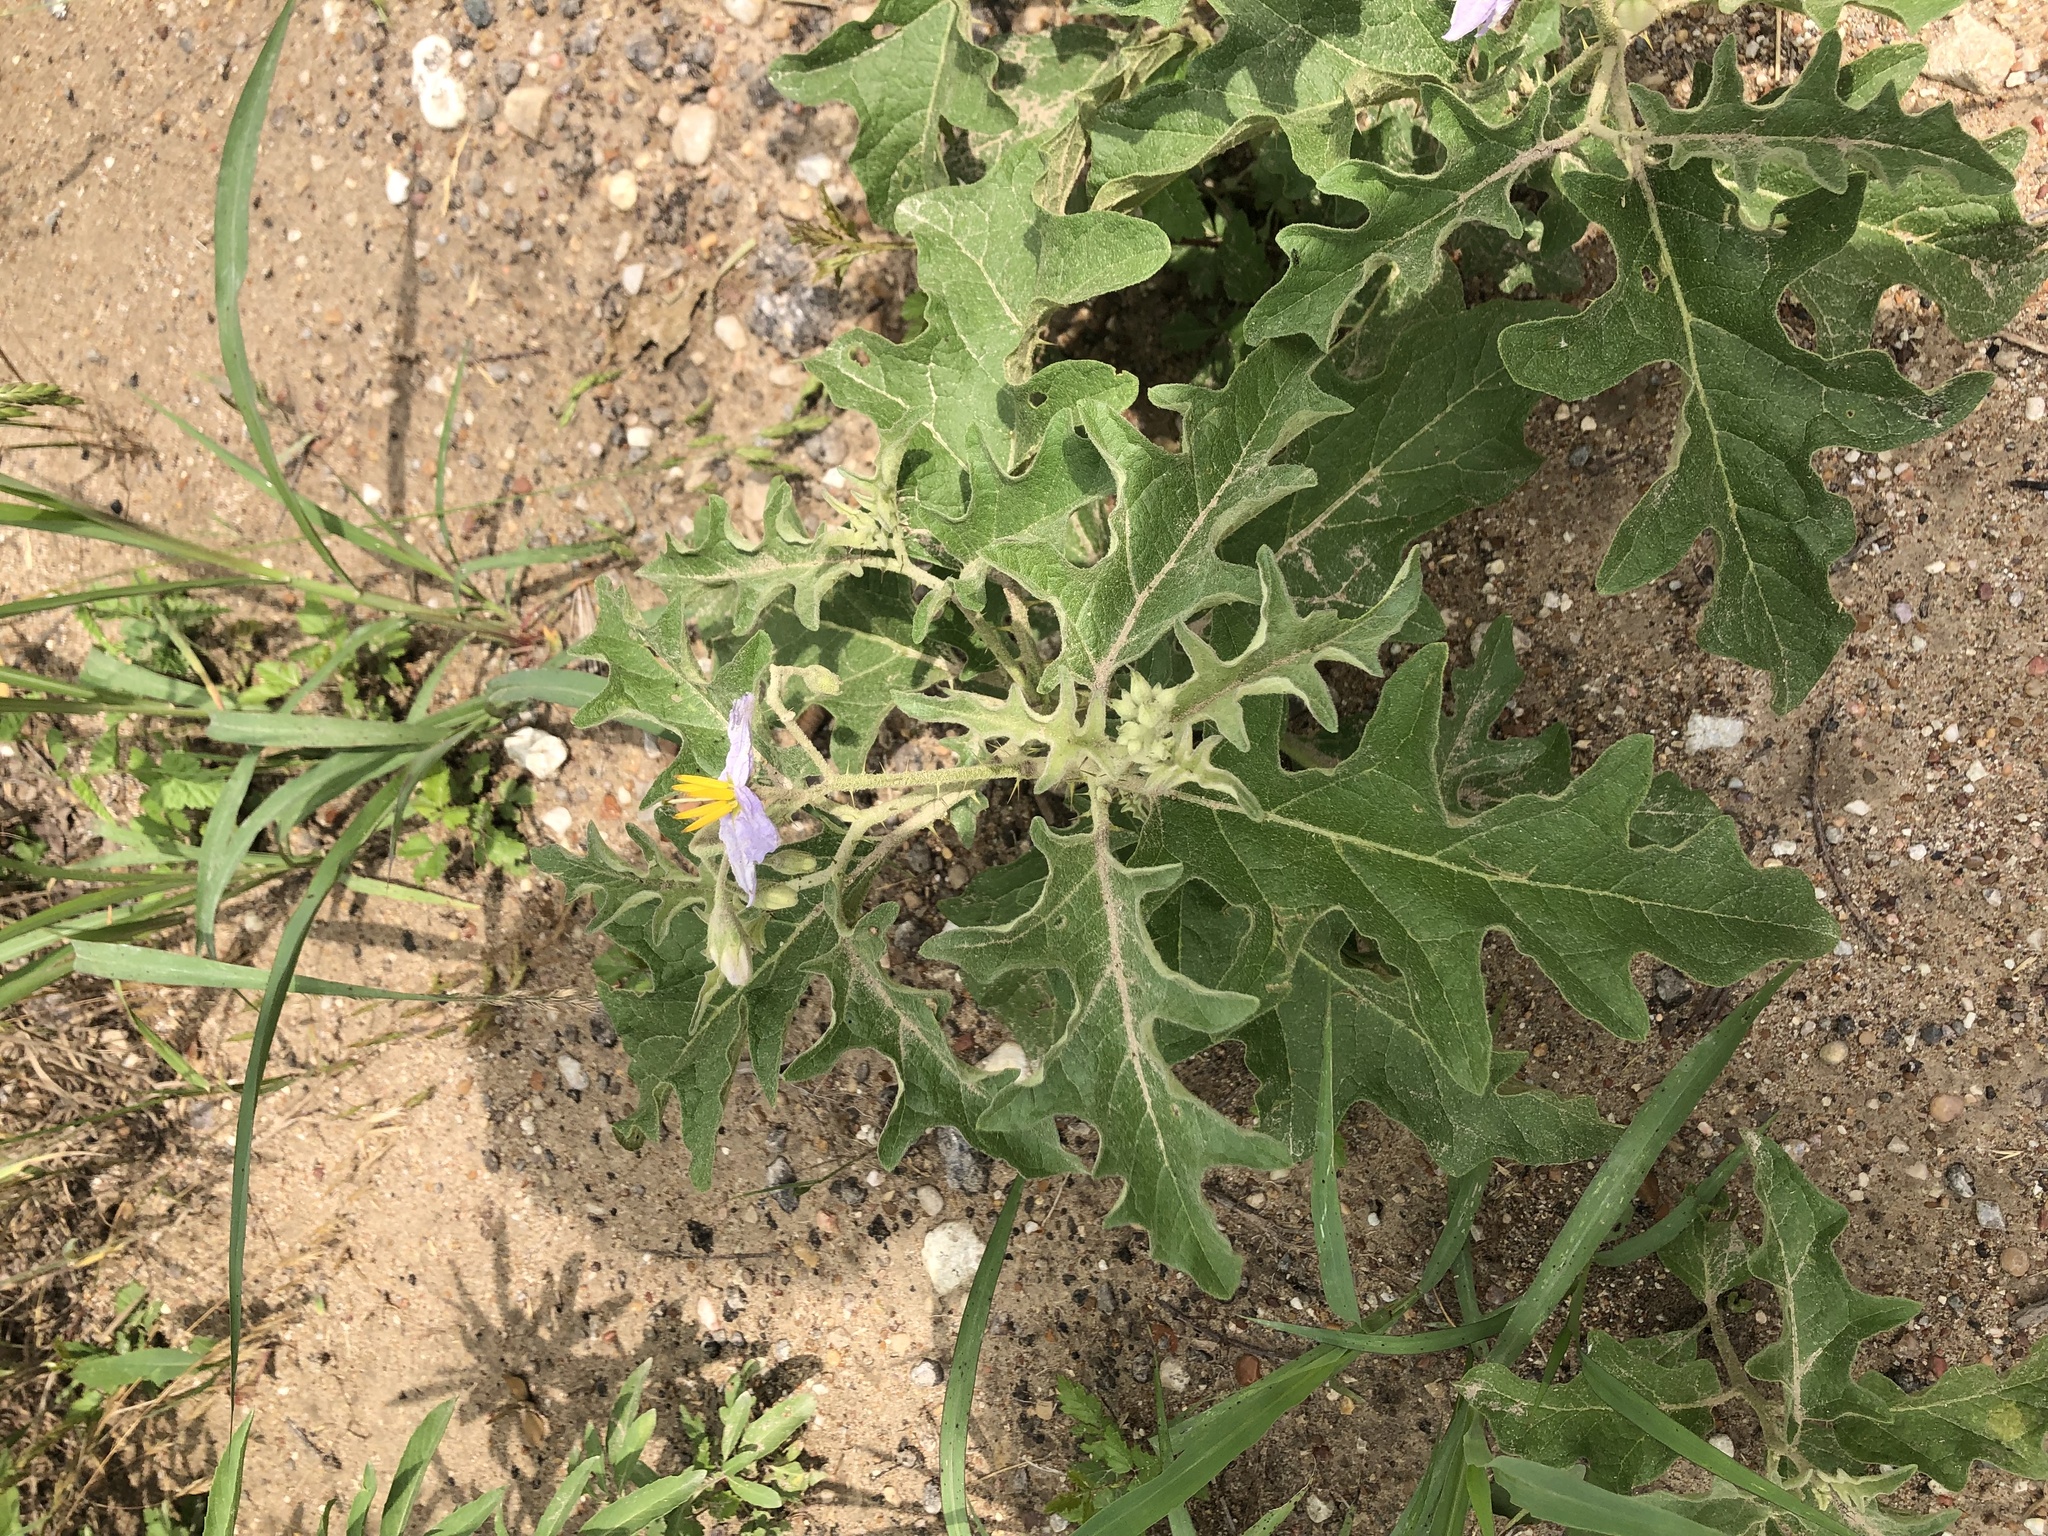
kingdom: Plantae
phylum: Tracheophyta
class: Magnoliopsida
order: Solanales
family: Solanaceae
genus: Solanum
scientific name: Solanum dimidiatum
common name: Carolina horse-nettle
